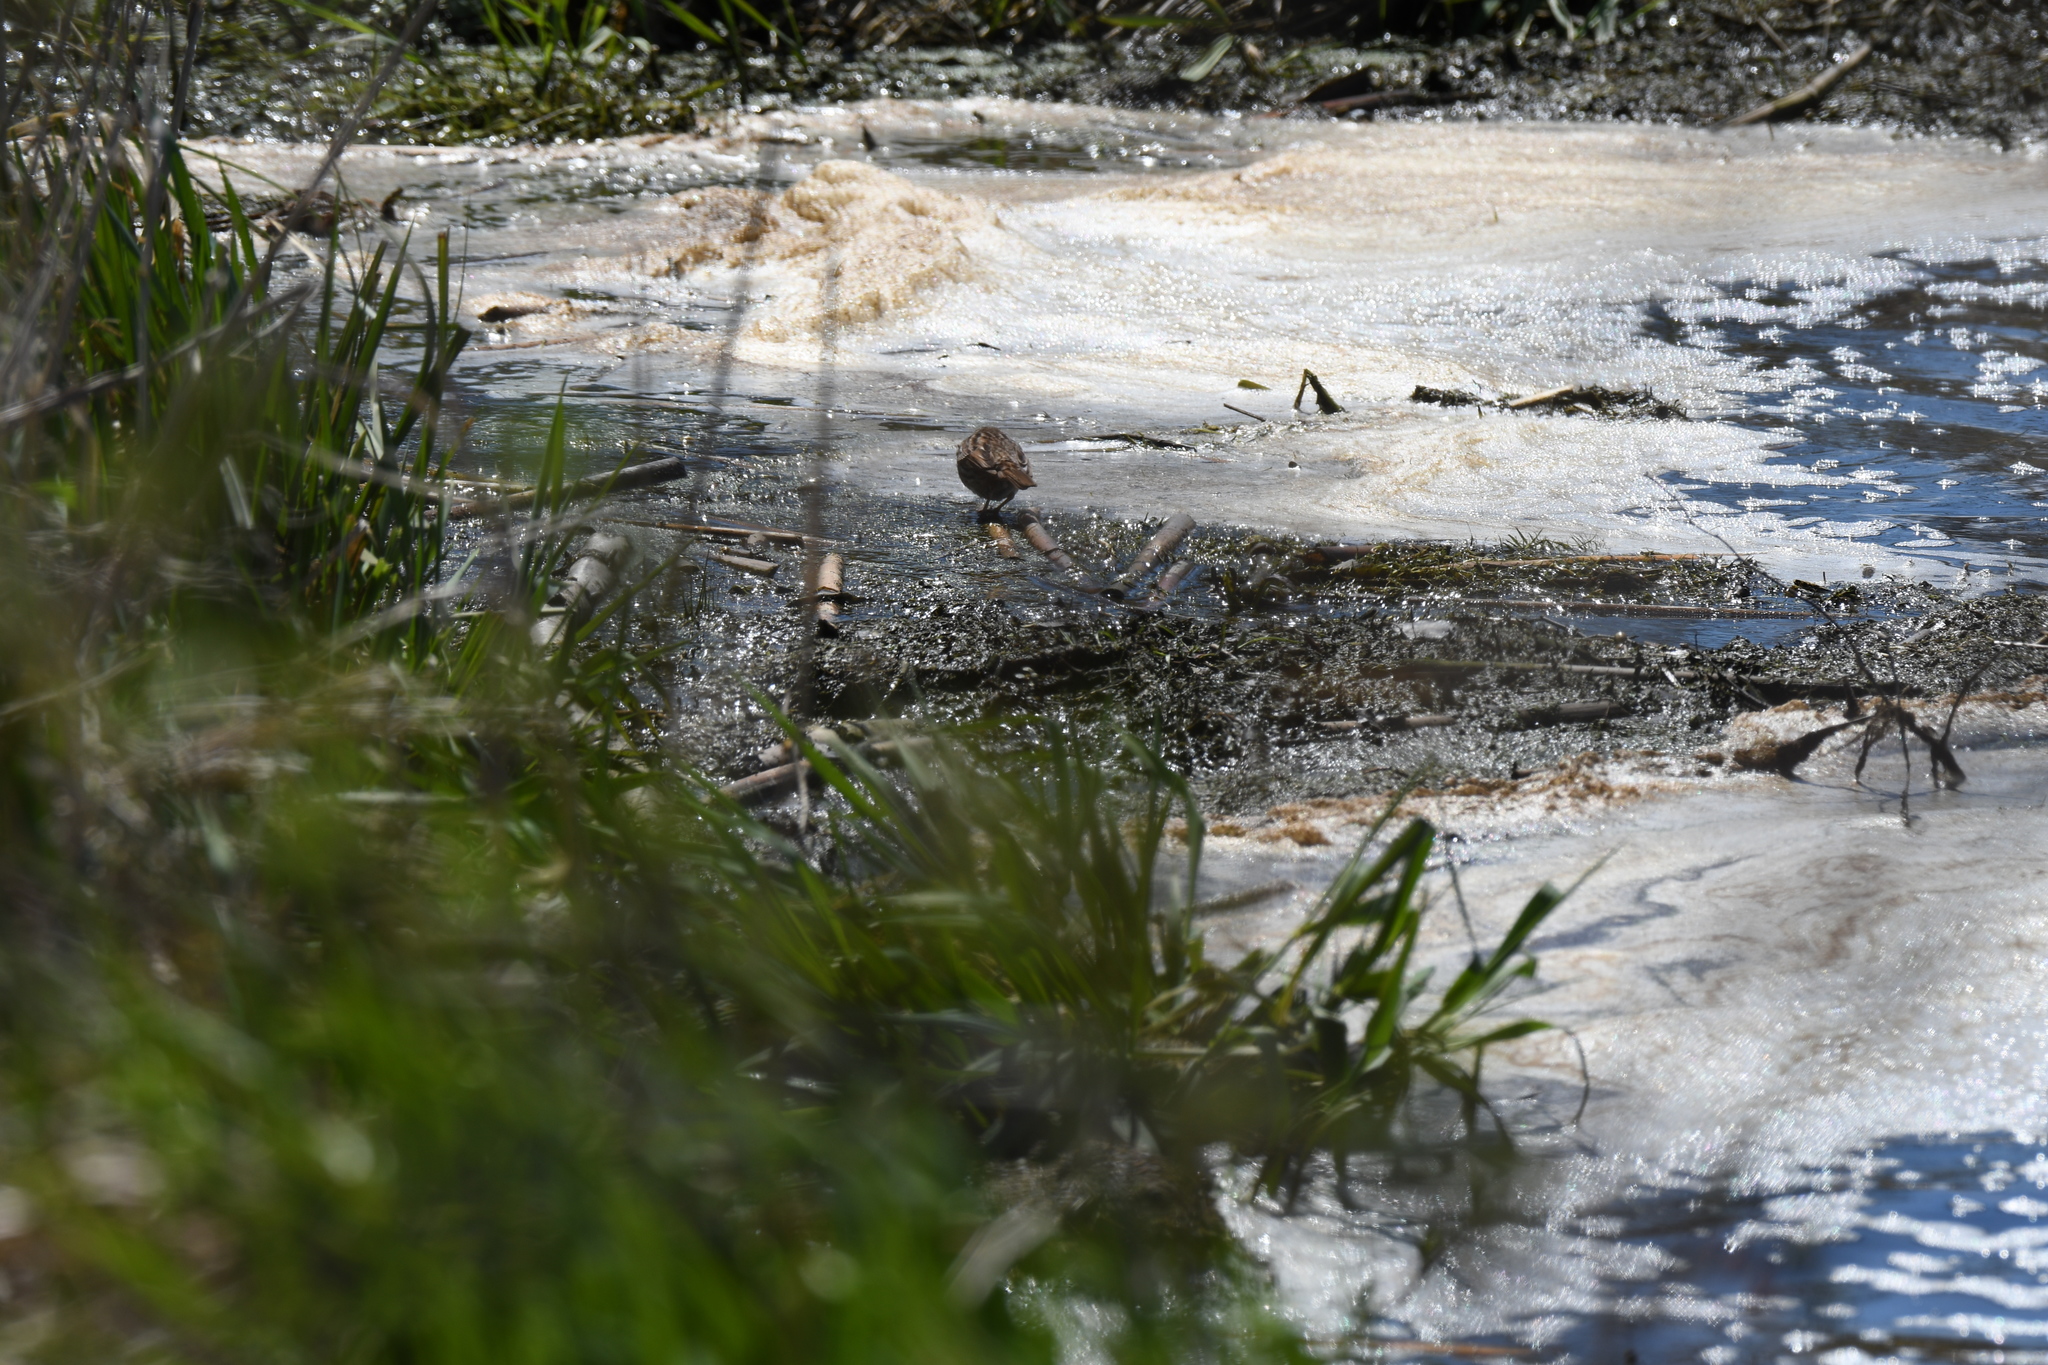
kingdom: Animalia
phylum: Chordata
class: Aves
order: Passeriformes
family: Passerellidae
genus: Melospiza
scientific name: Melospiza melodia
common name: Song sparrow
